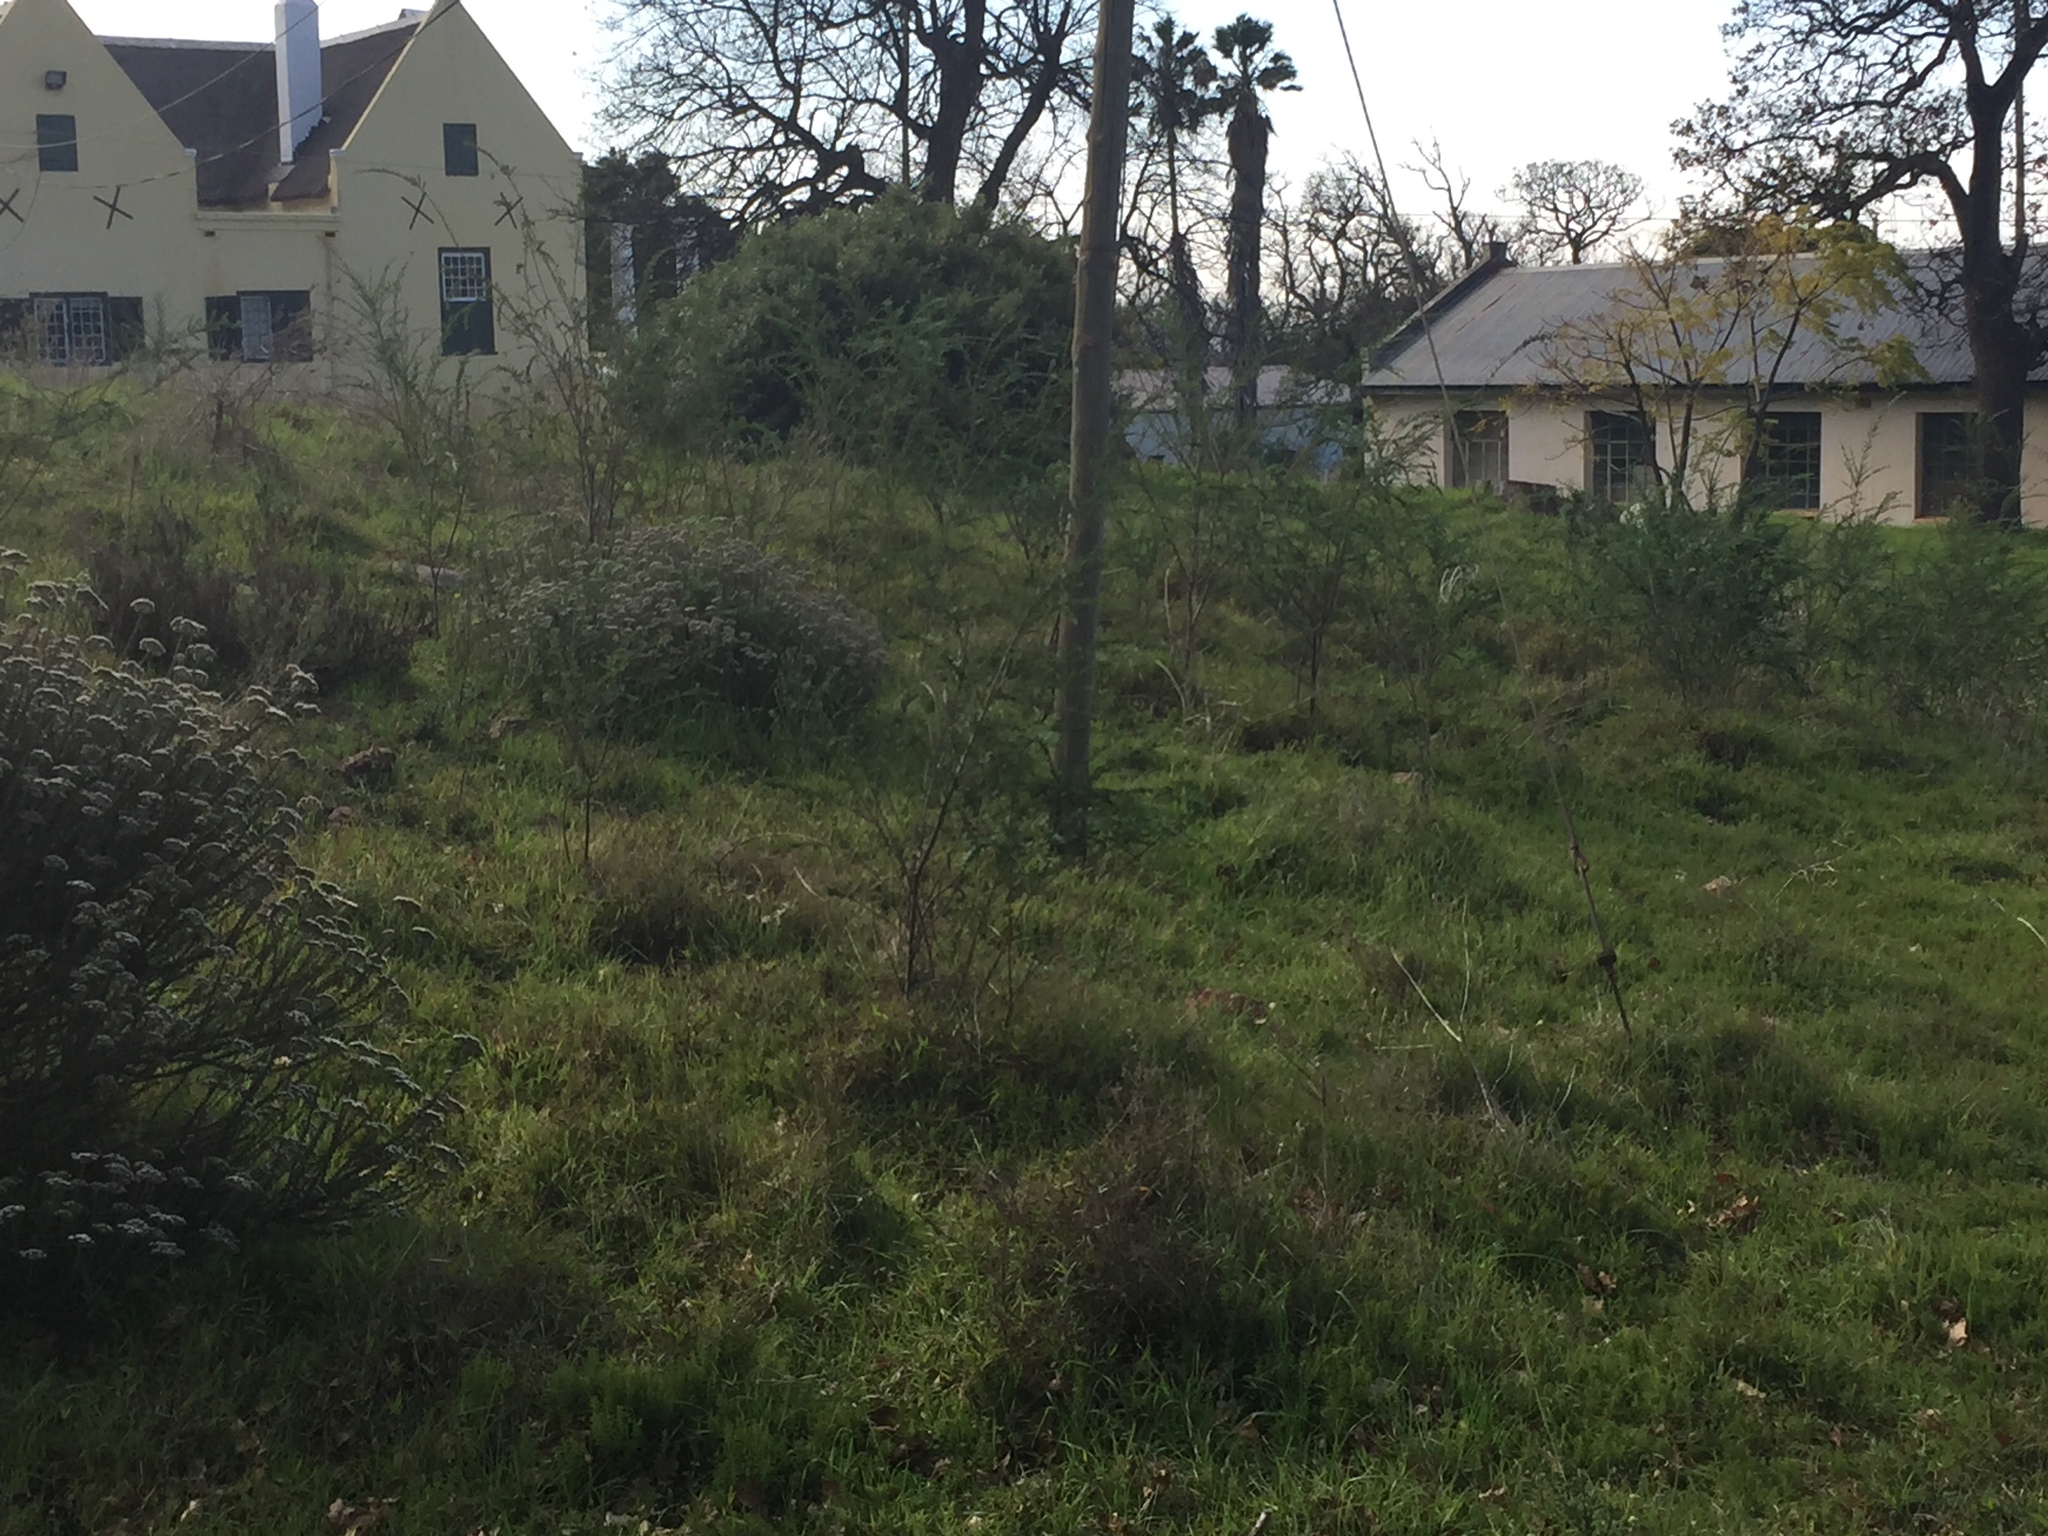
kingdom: Plantae
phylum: Tracheophyta
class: Magnoliopsida
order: Fabales
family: Fabaceae
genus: Genista
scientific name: Genista monspessulana
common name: Montpellier broom
